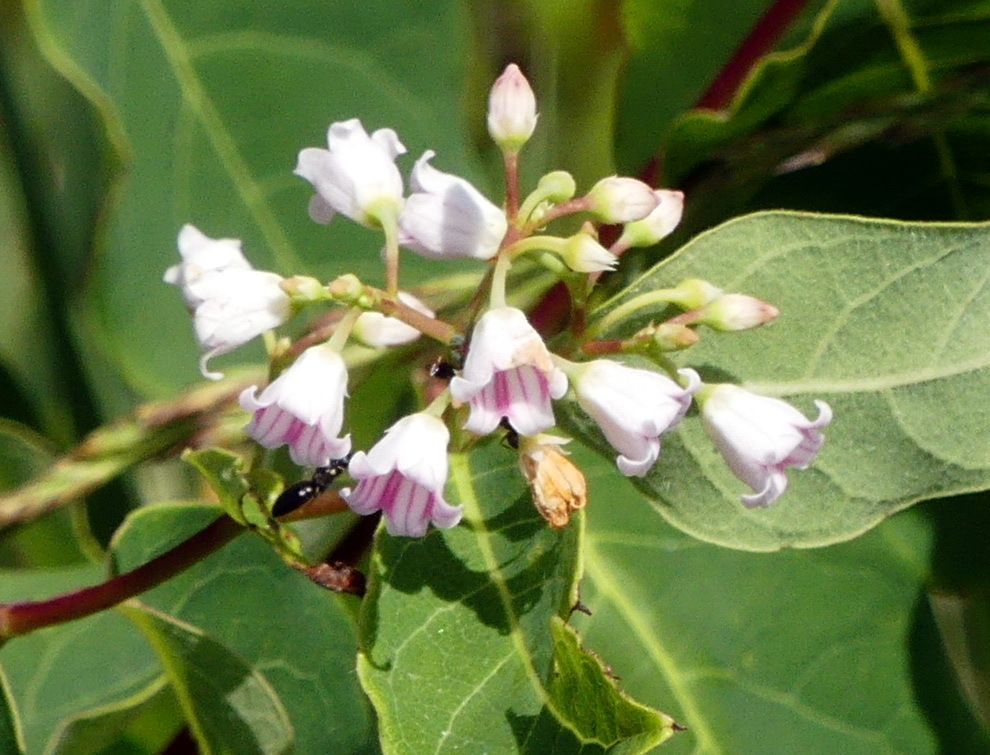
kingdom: Plantae
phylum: Tracheophyta
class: Magnoliopsida
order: Gentianales
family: Apocynaceae
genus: Apocynum
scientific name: Apocynum androsaemifolium
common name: Spreading dogbane
